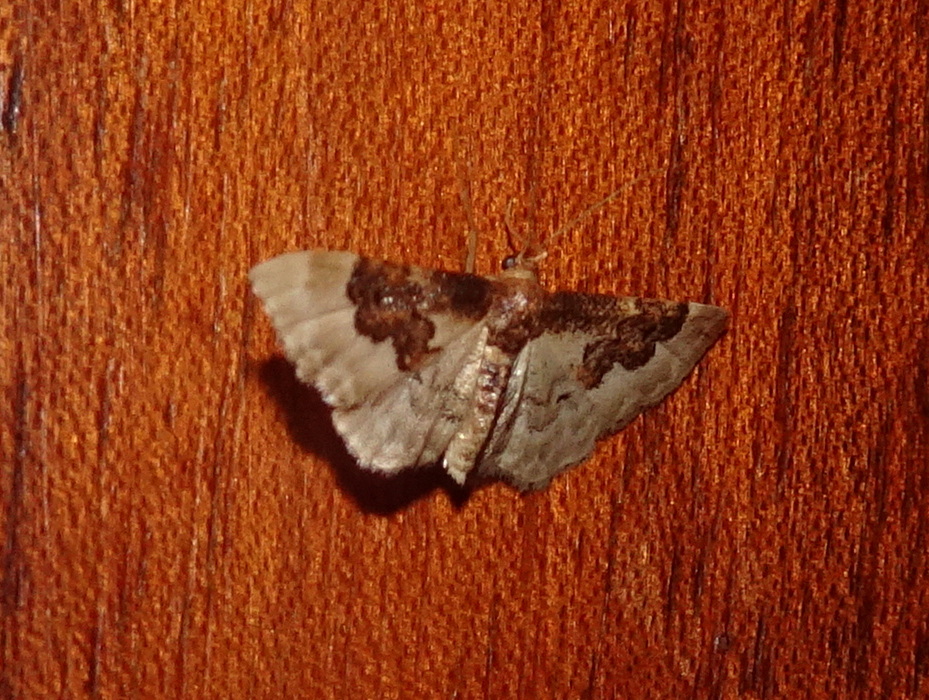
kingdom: Animalia
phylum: Arthropoda
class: Insecta
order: Lepidoptera
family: Geometridae
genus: Idaea
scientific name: Idaea rusticata
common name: Least carpet
